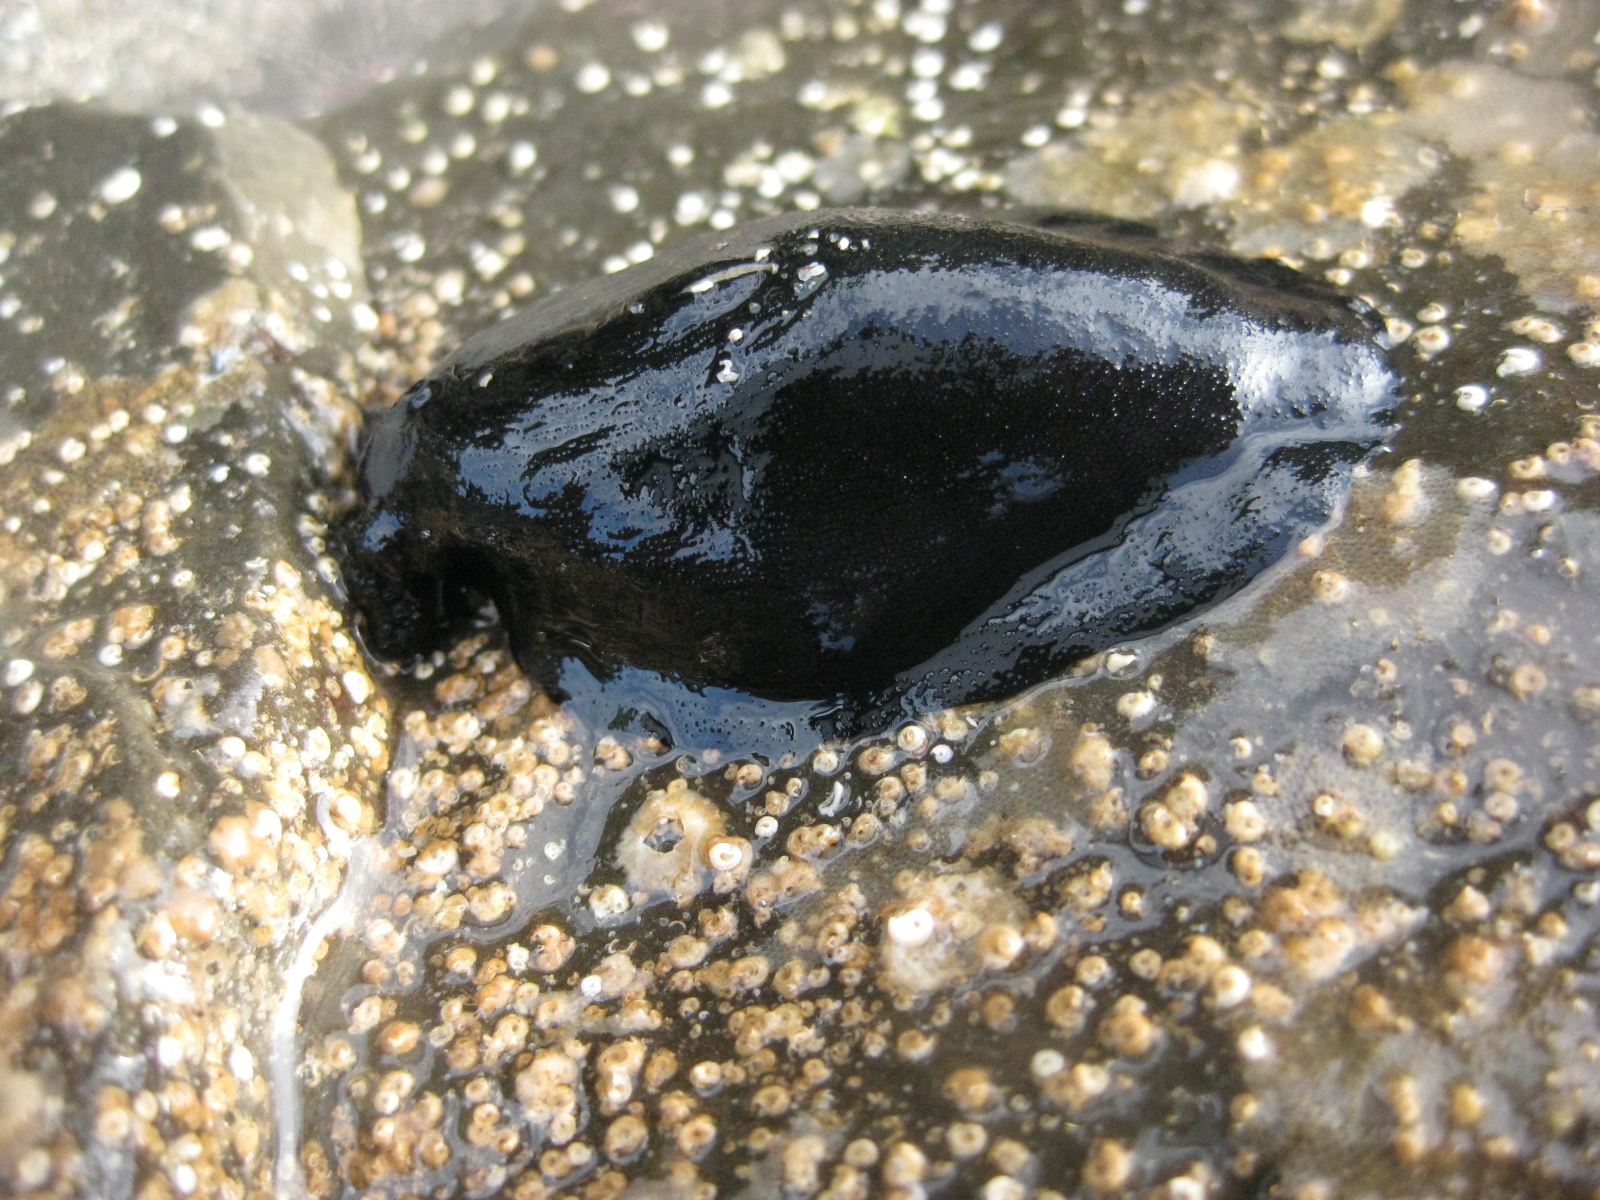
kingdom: Animalia
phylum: Mollusca
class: Gastropoda
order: Lepetellida
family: Fissurellidae
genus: Scutus
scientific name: Scutus breviculus
